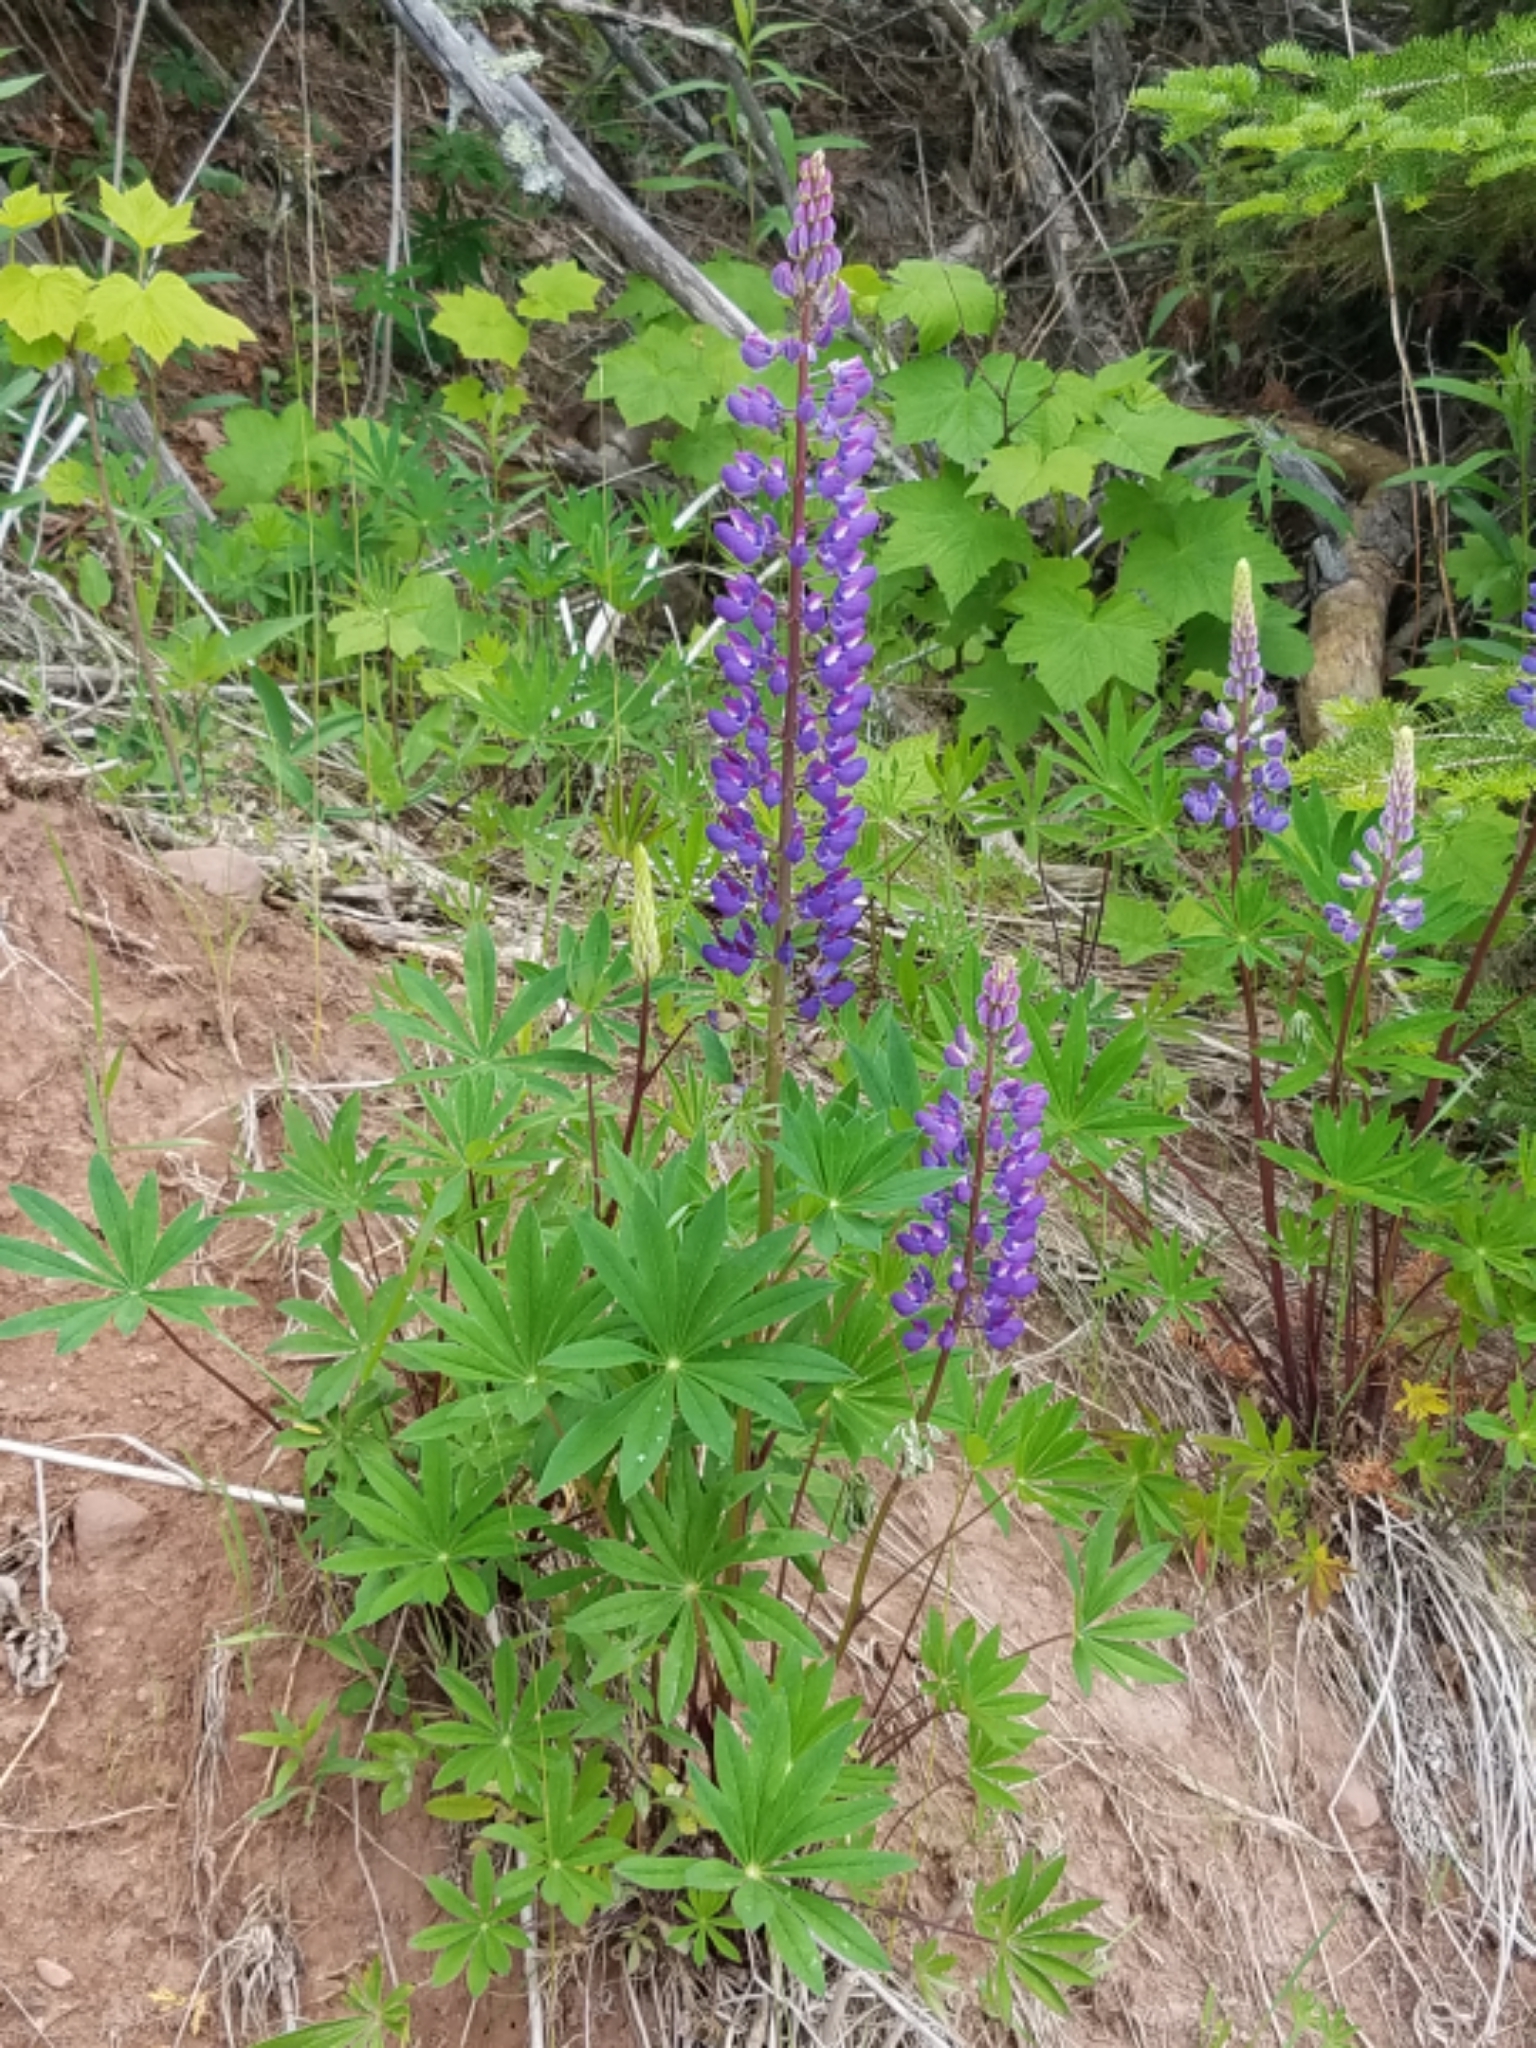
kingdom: Plantae
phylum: Tracheophyta
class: Magnoliopsida
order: Fabales
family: Fabaceae
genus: Lupinus
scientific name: Lupinus polyphyllus
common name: Garden lupin
